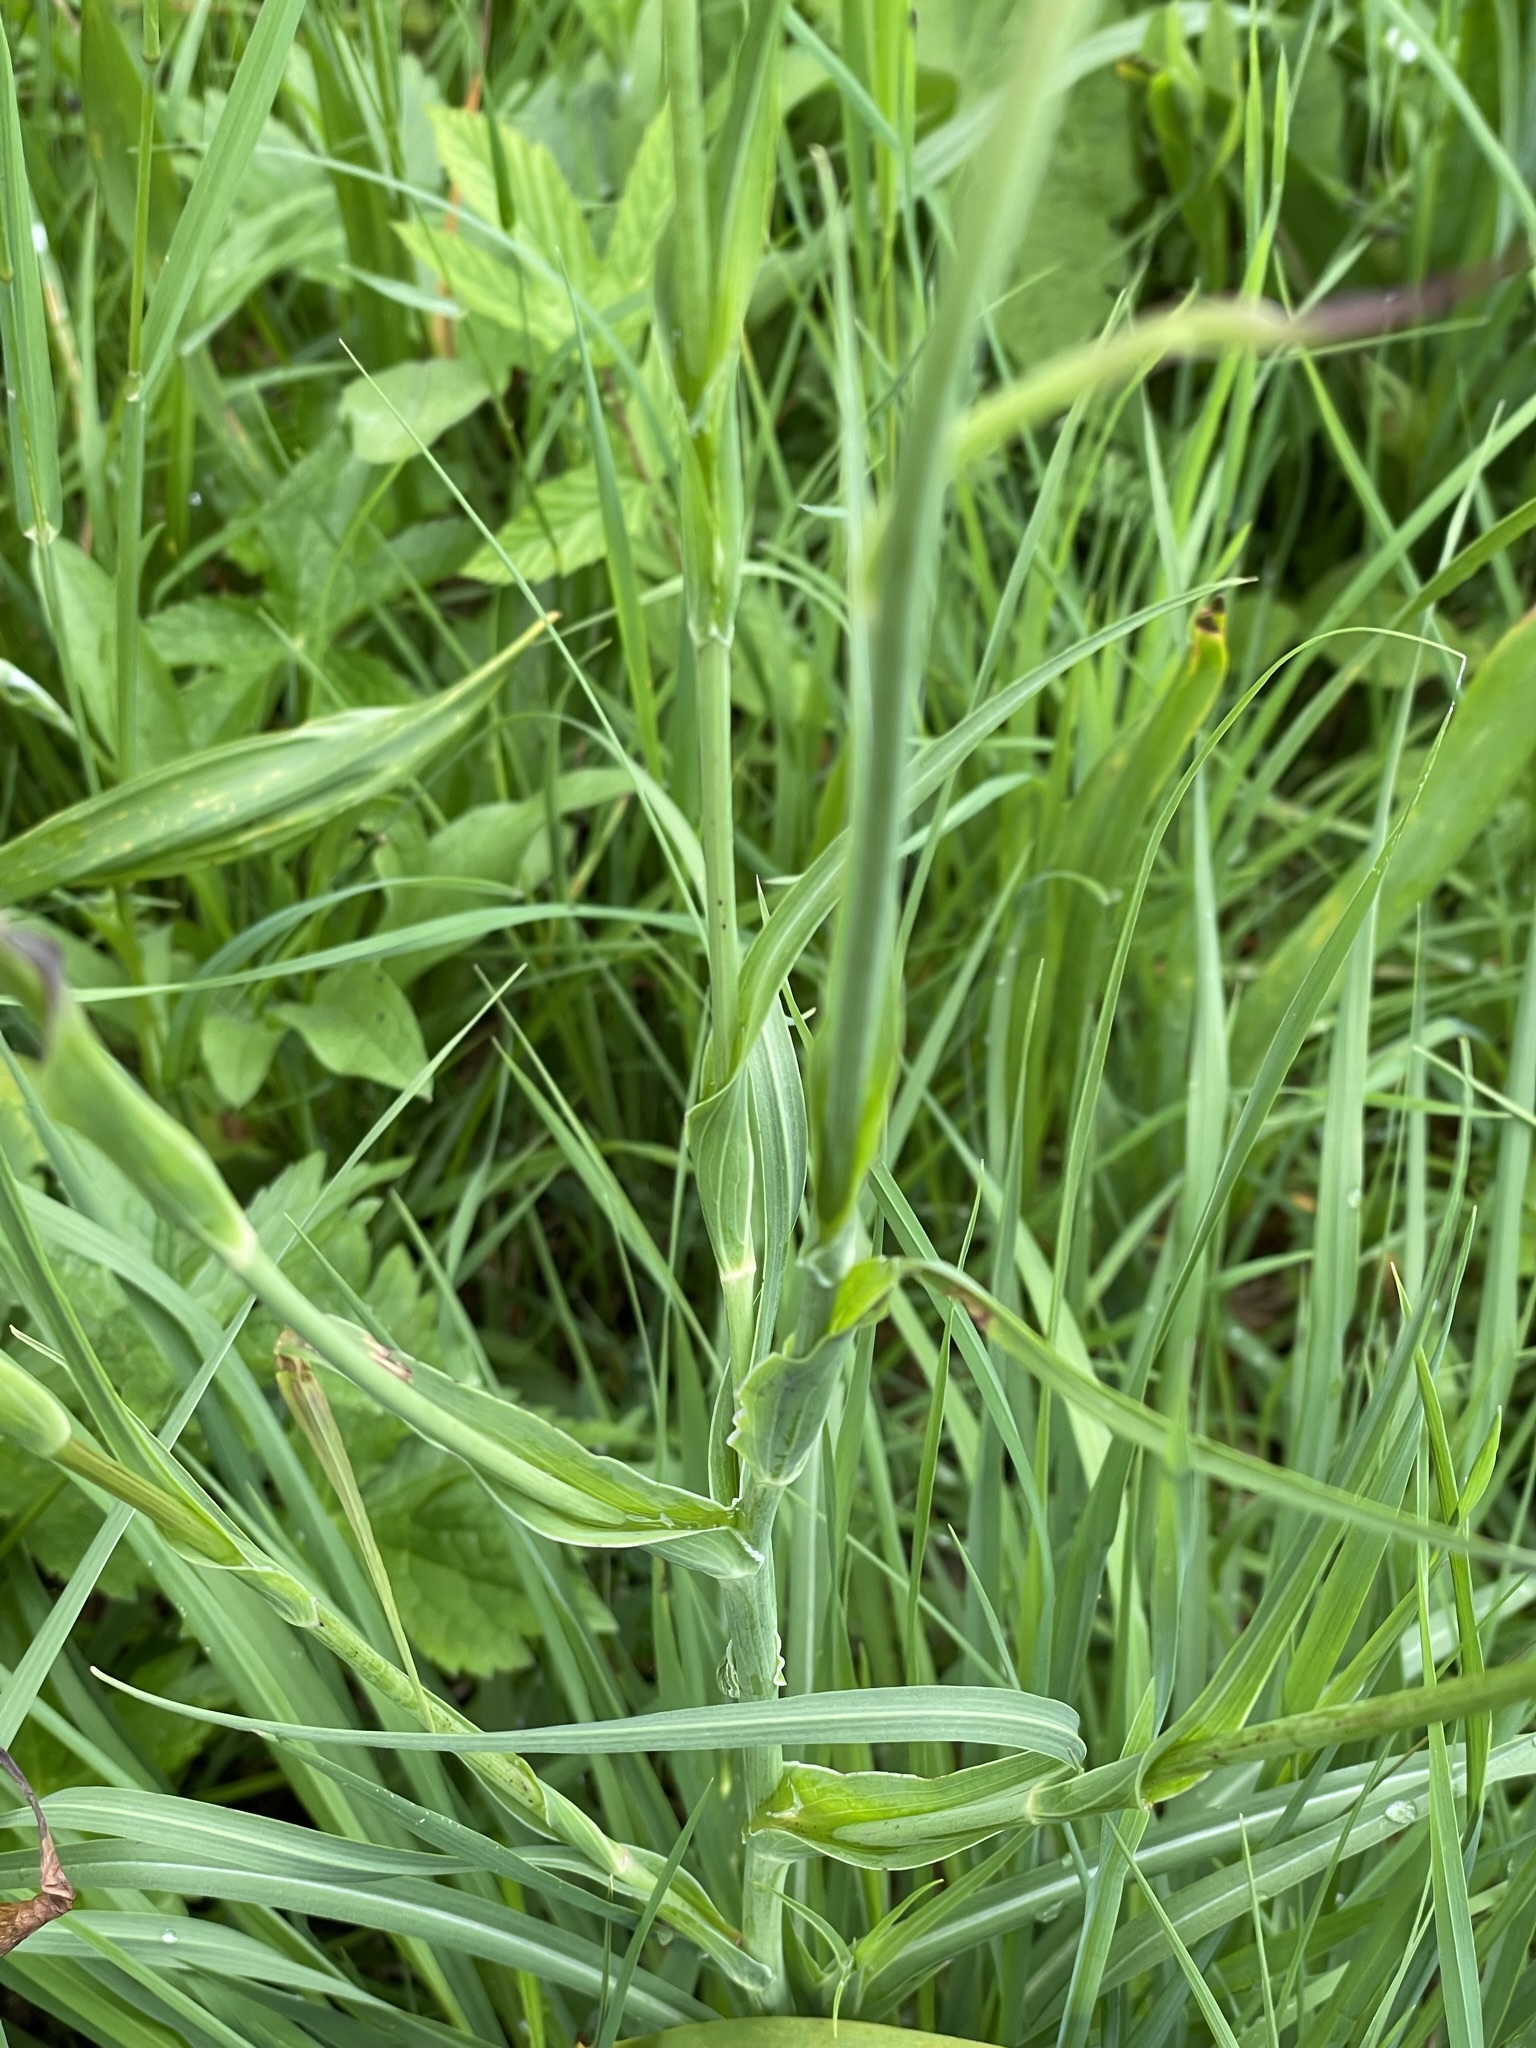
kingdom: Plantae
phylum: Tracheophyta
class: Magnoliopsida
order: Asterales
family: Asteraceae
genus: Tragopogon
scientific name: Tragopogon orientalis
